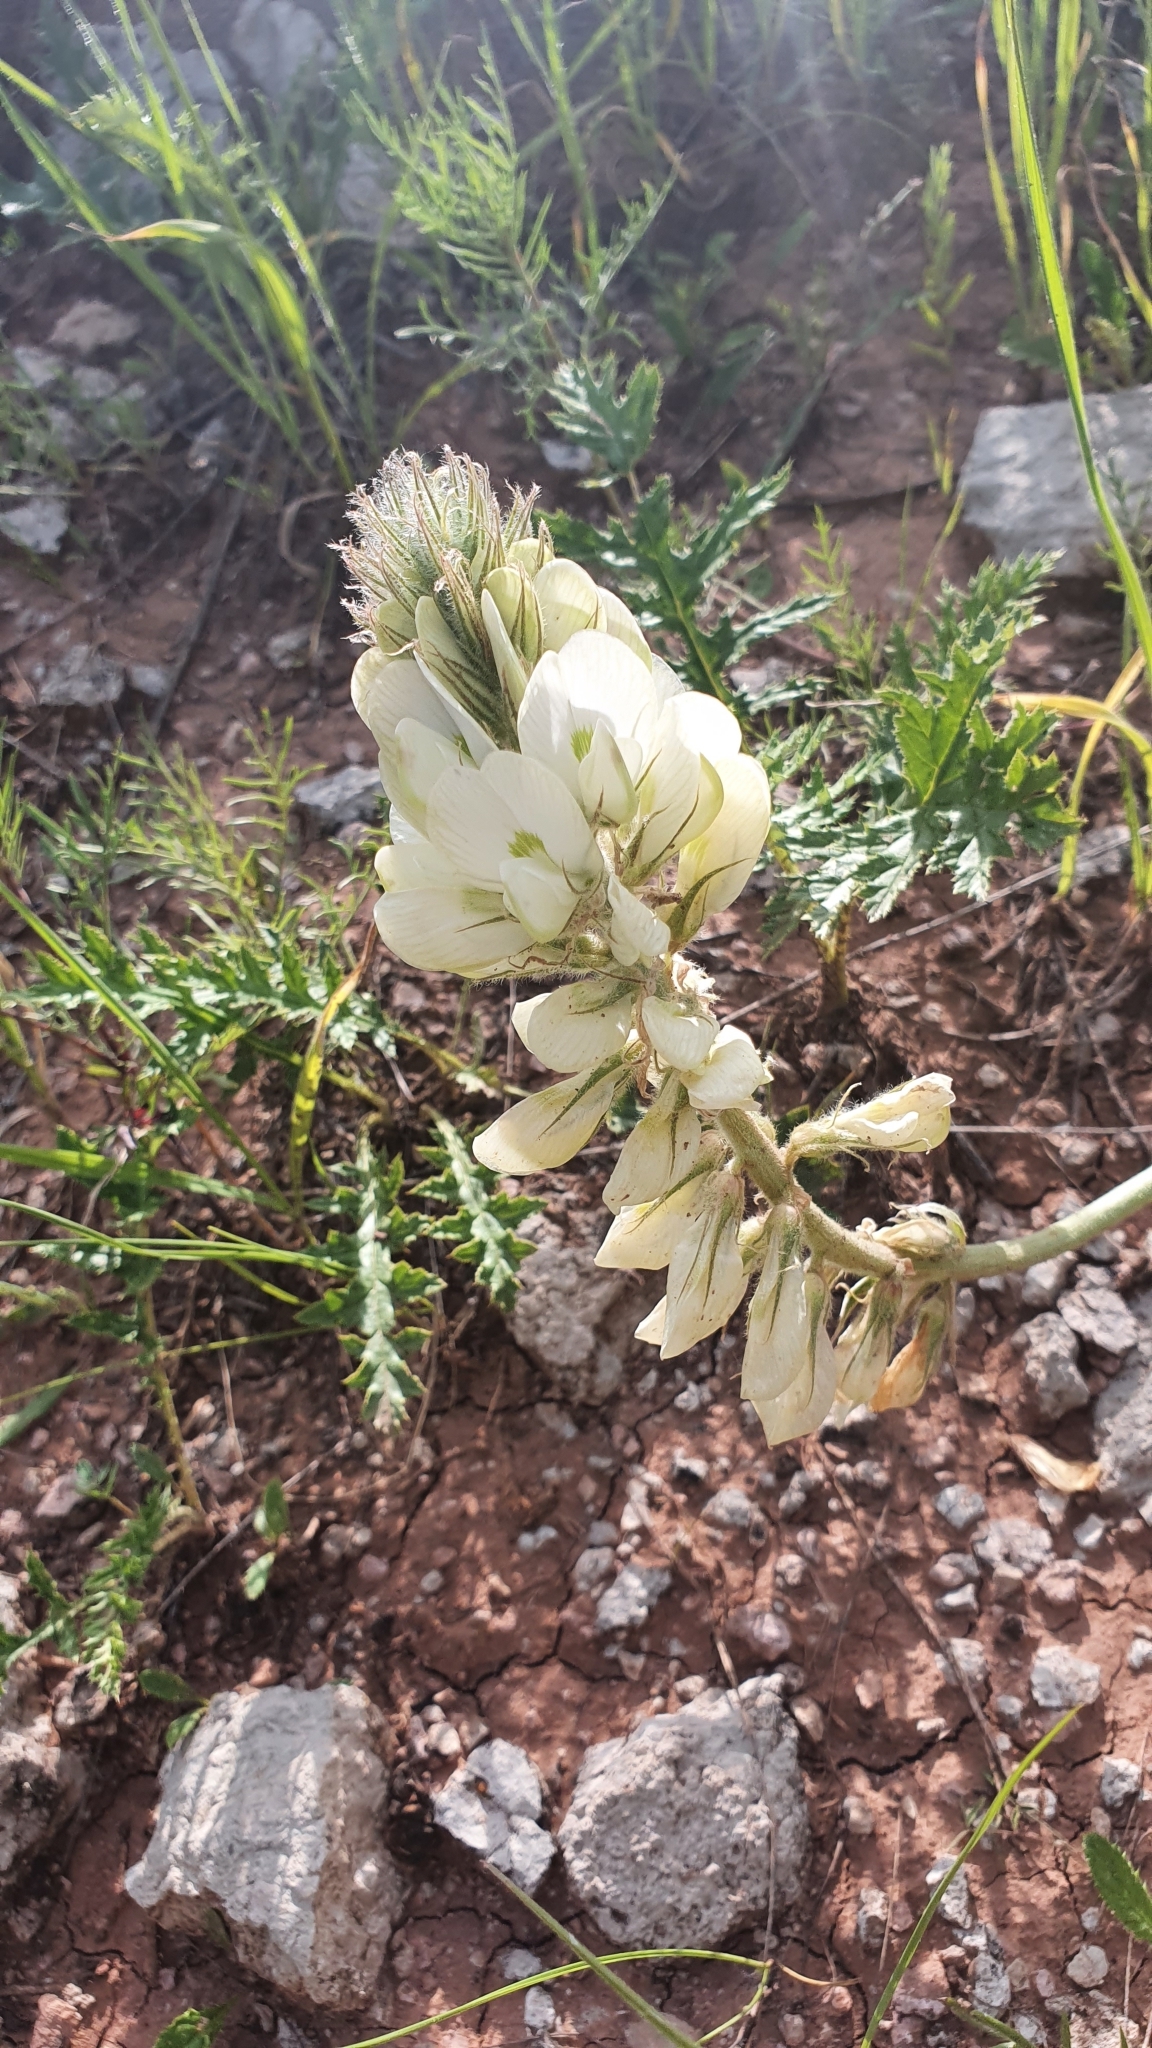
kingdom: Plantae
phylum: Tracheophyta
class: Magnoliopsida
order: Fabales
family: Fabaceae
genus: Hedysarum
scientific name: Hedysarum grandiflorum
